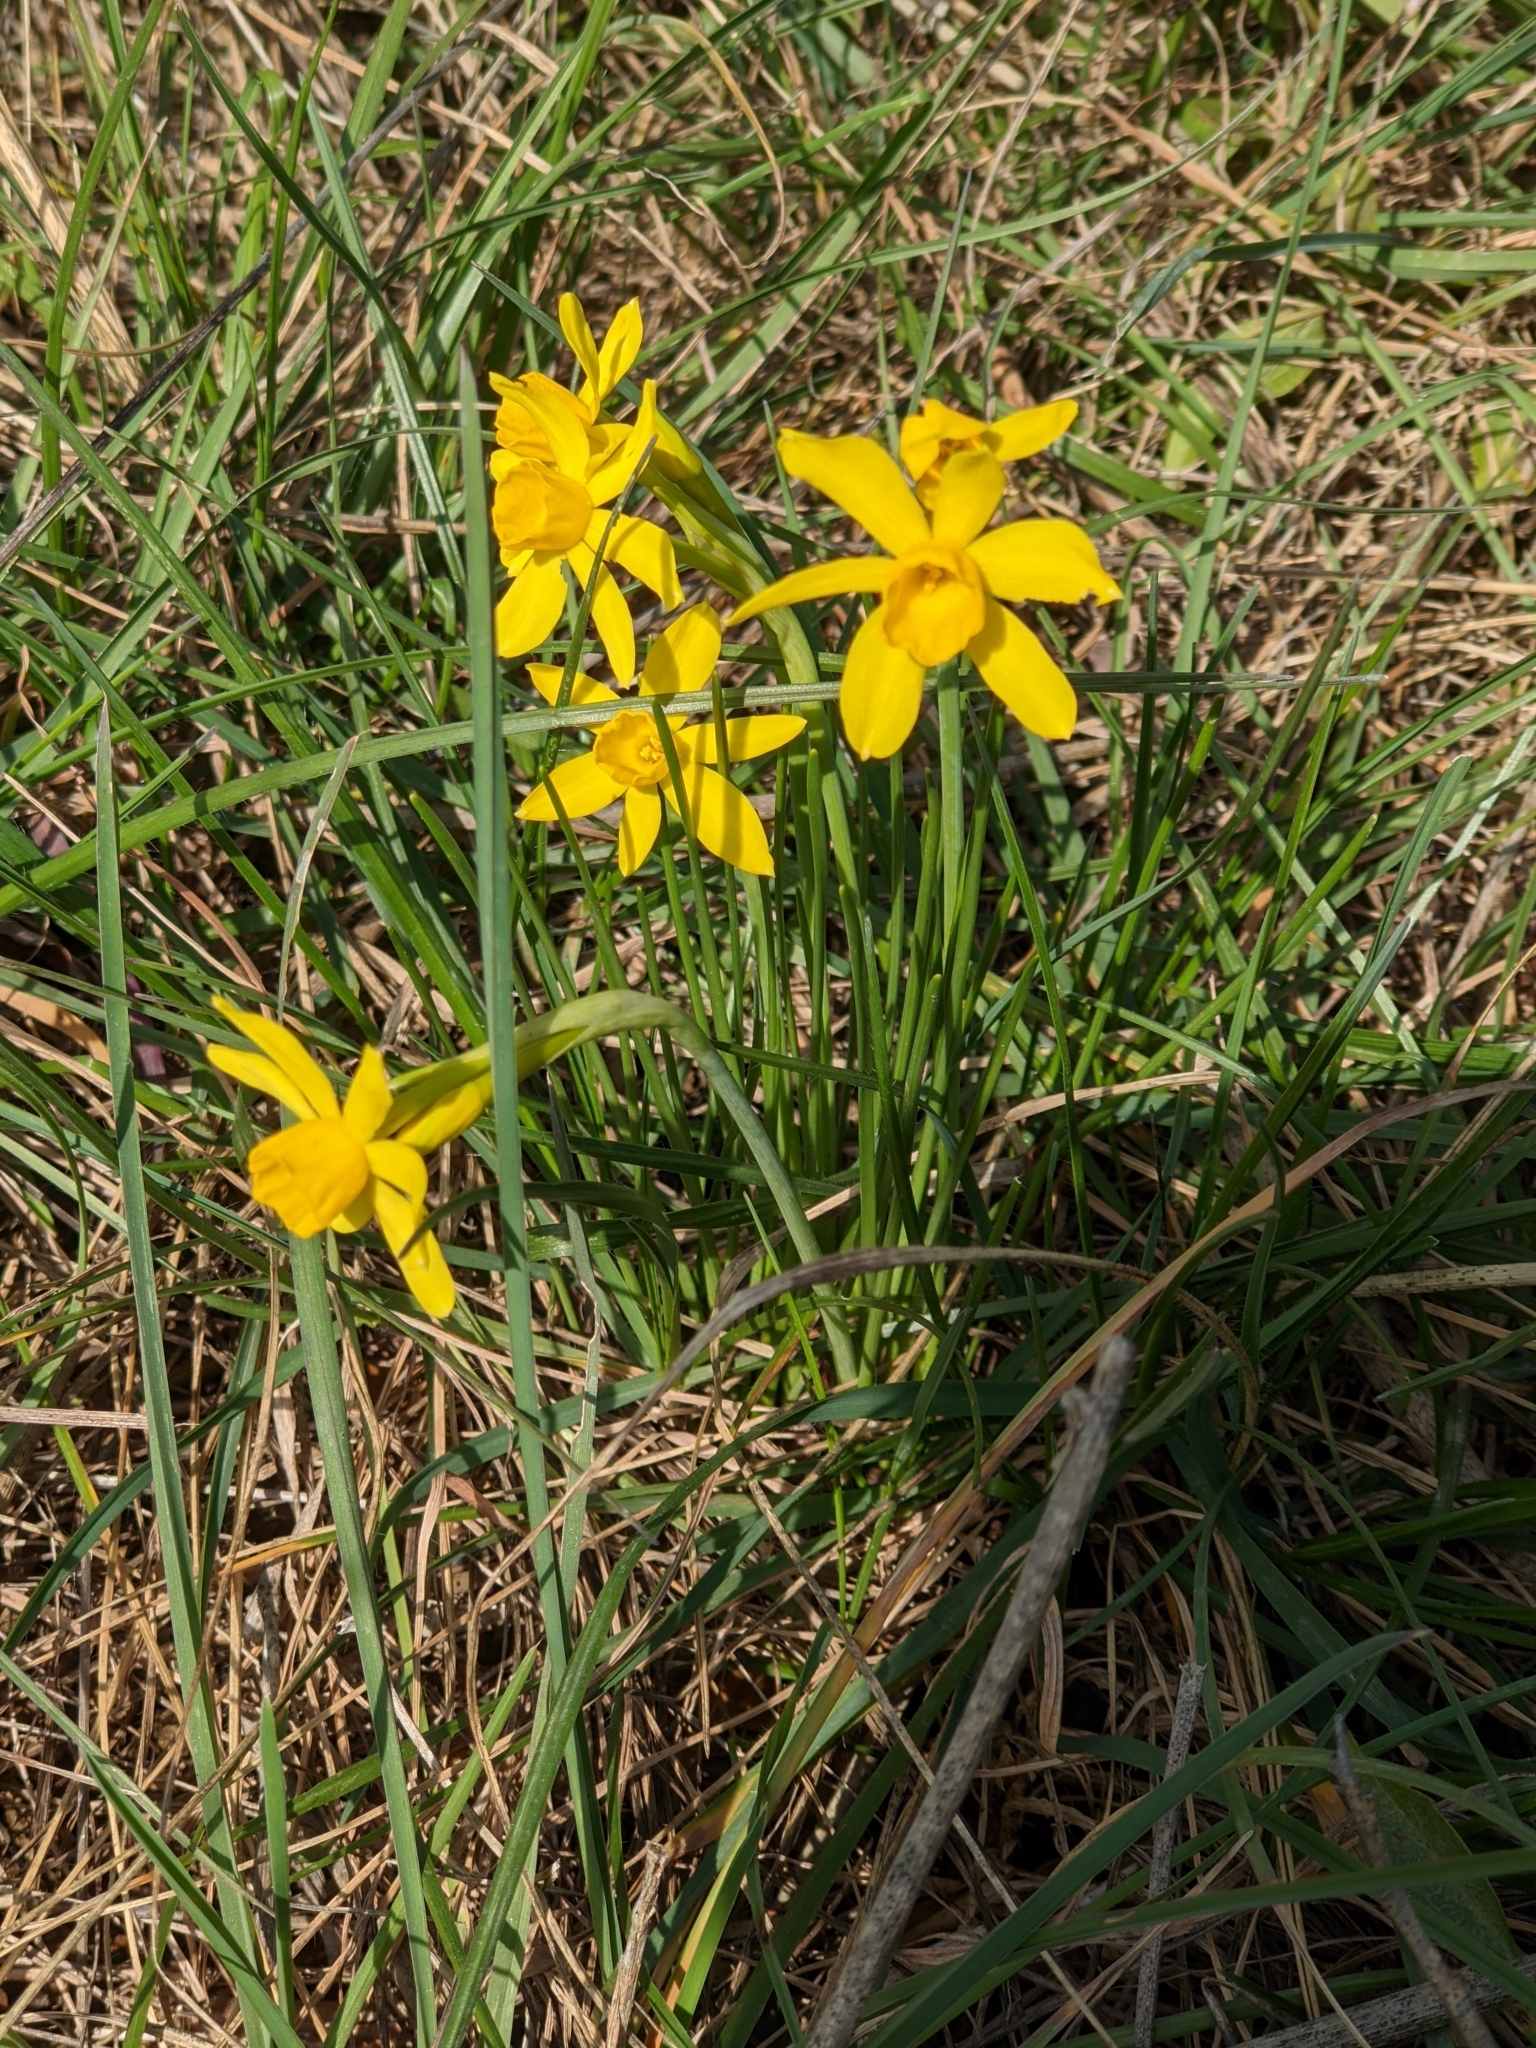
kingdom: Plantae
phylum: Tracheophyta
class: Liliopsida
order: Asparagales
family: Amaryllidaceae
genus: Narcissus
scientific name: Narcissus assoanus
